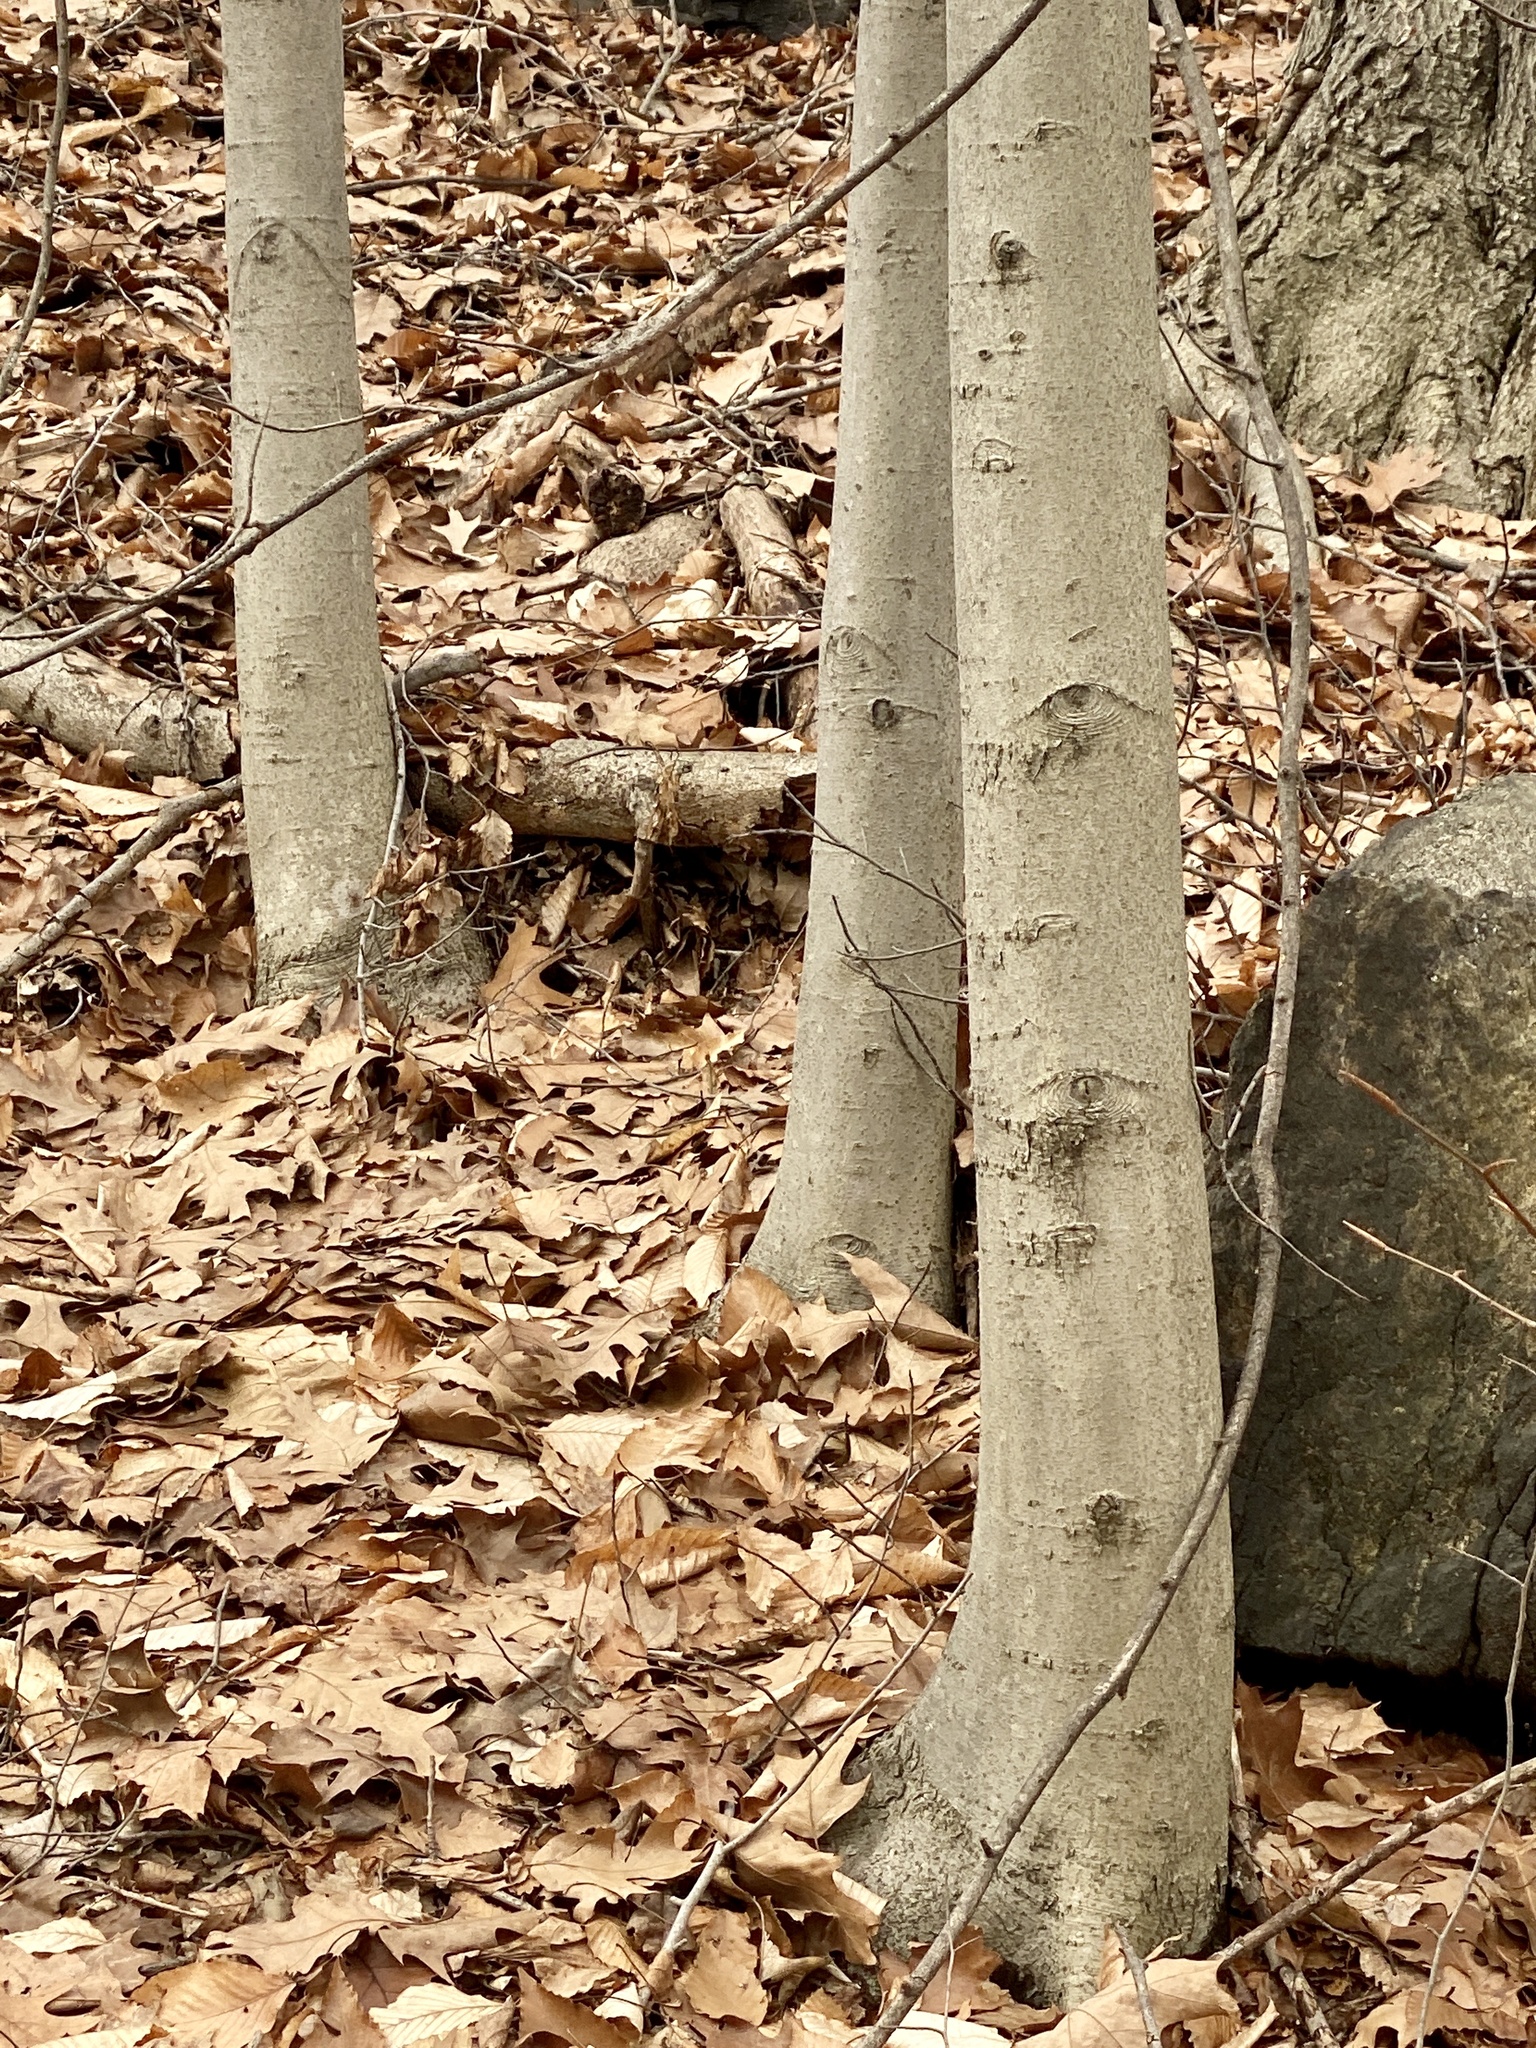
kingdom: Plantae
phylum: Tracheophyta
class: Magnoliopsida
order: Fagales
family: Fagaceae
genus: Fagus
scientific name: Fagus grandifolia
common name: American beech
